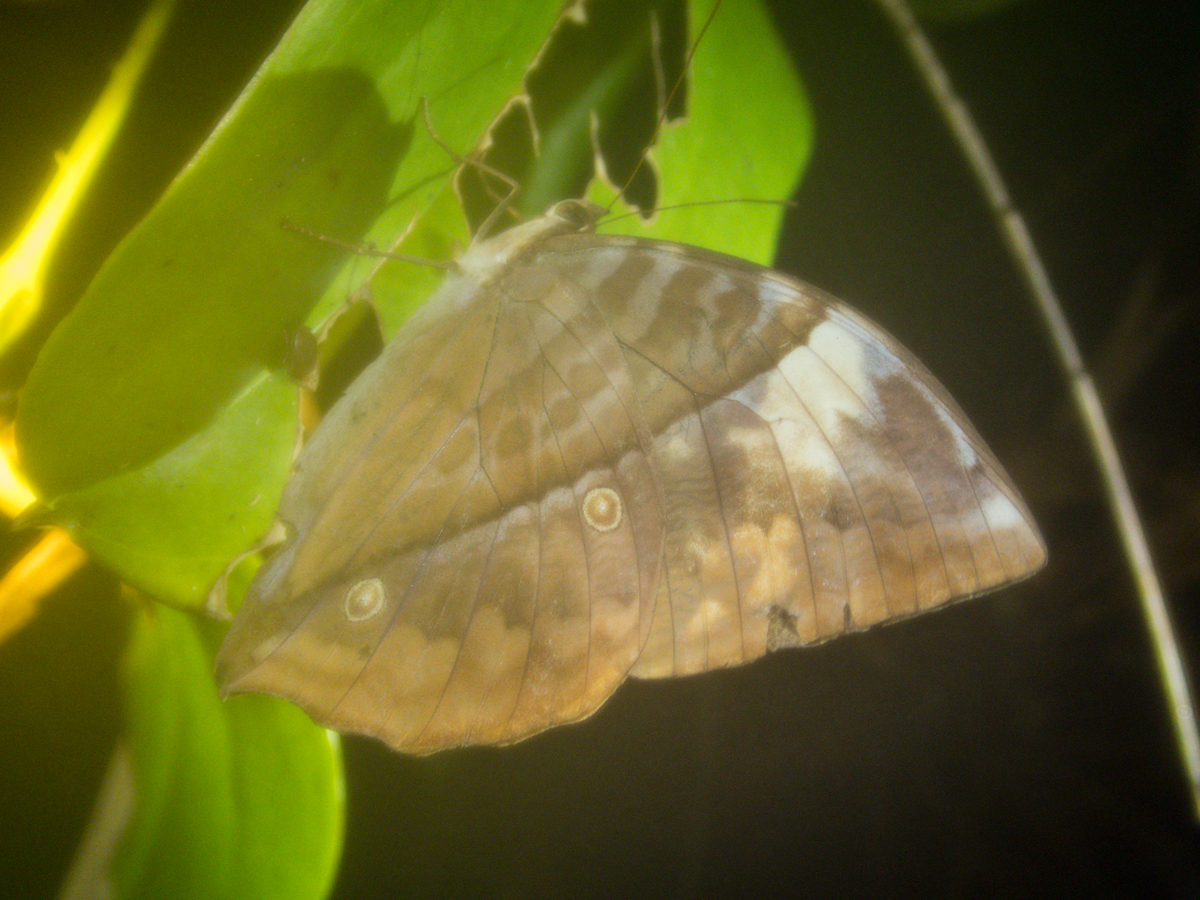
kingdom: Animalia
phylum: Arthropoda
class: Insecta
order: Lepidoptera
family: Nymphalidae
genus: Zeuxidia
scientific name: Zeuxidia
